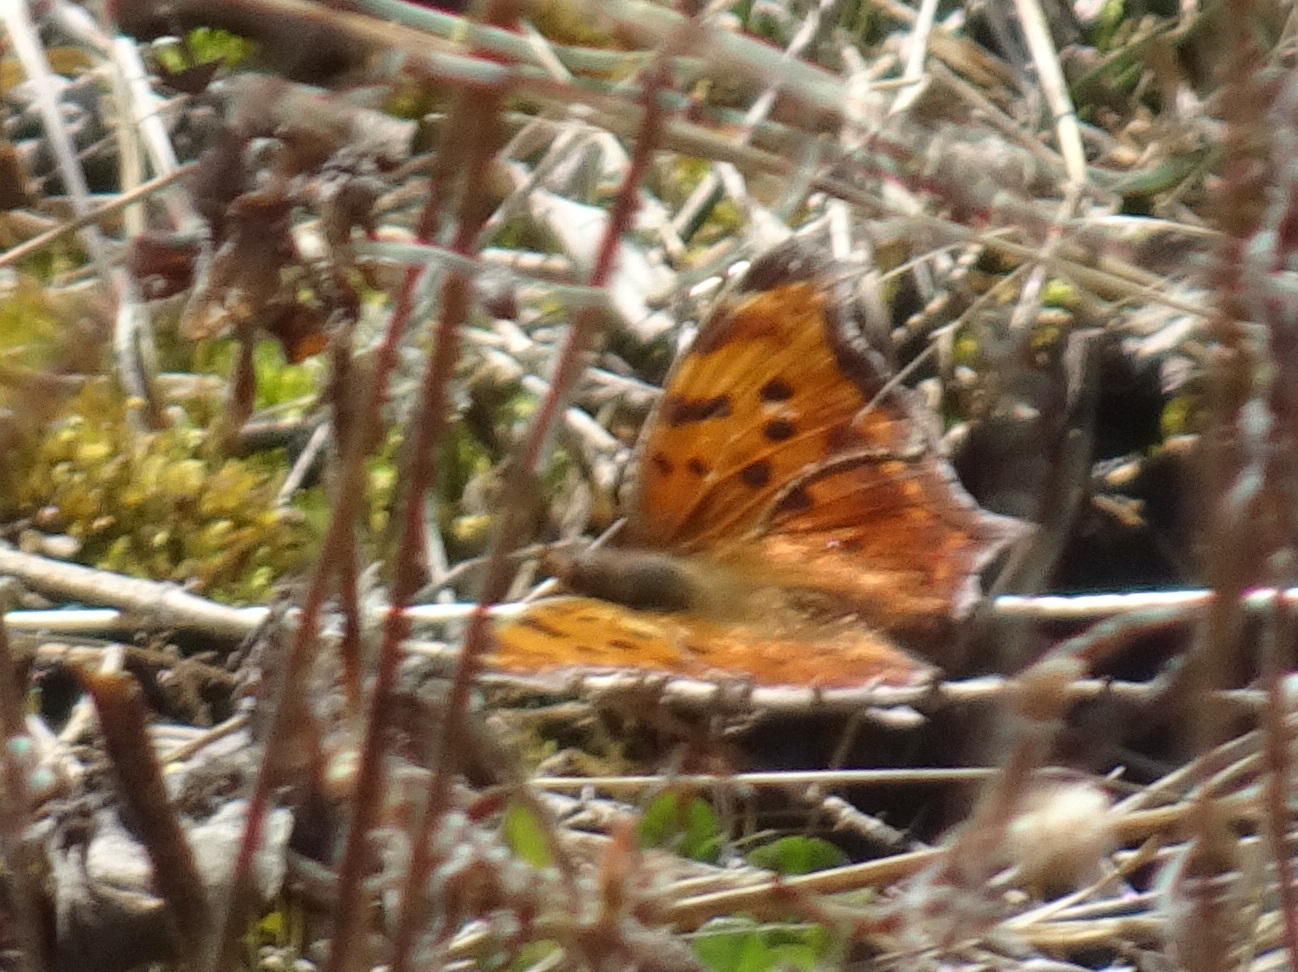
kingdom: Animalia
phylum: Arthropoda
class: Insecta
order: Lepidoptera
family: Nymphalidae
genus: Polygonia
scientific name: Polygonia comma
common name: Eastern comma
